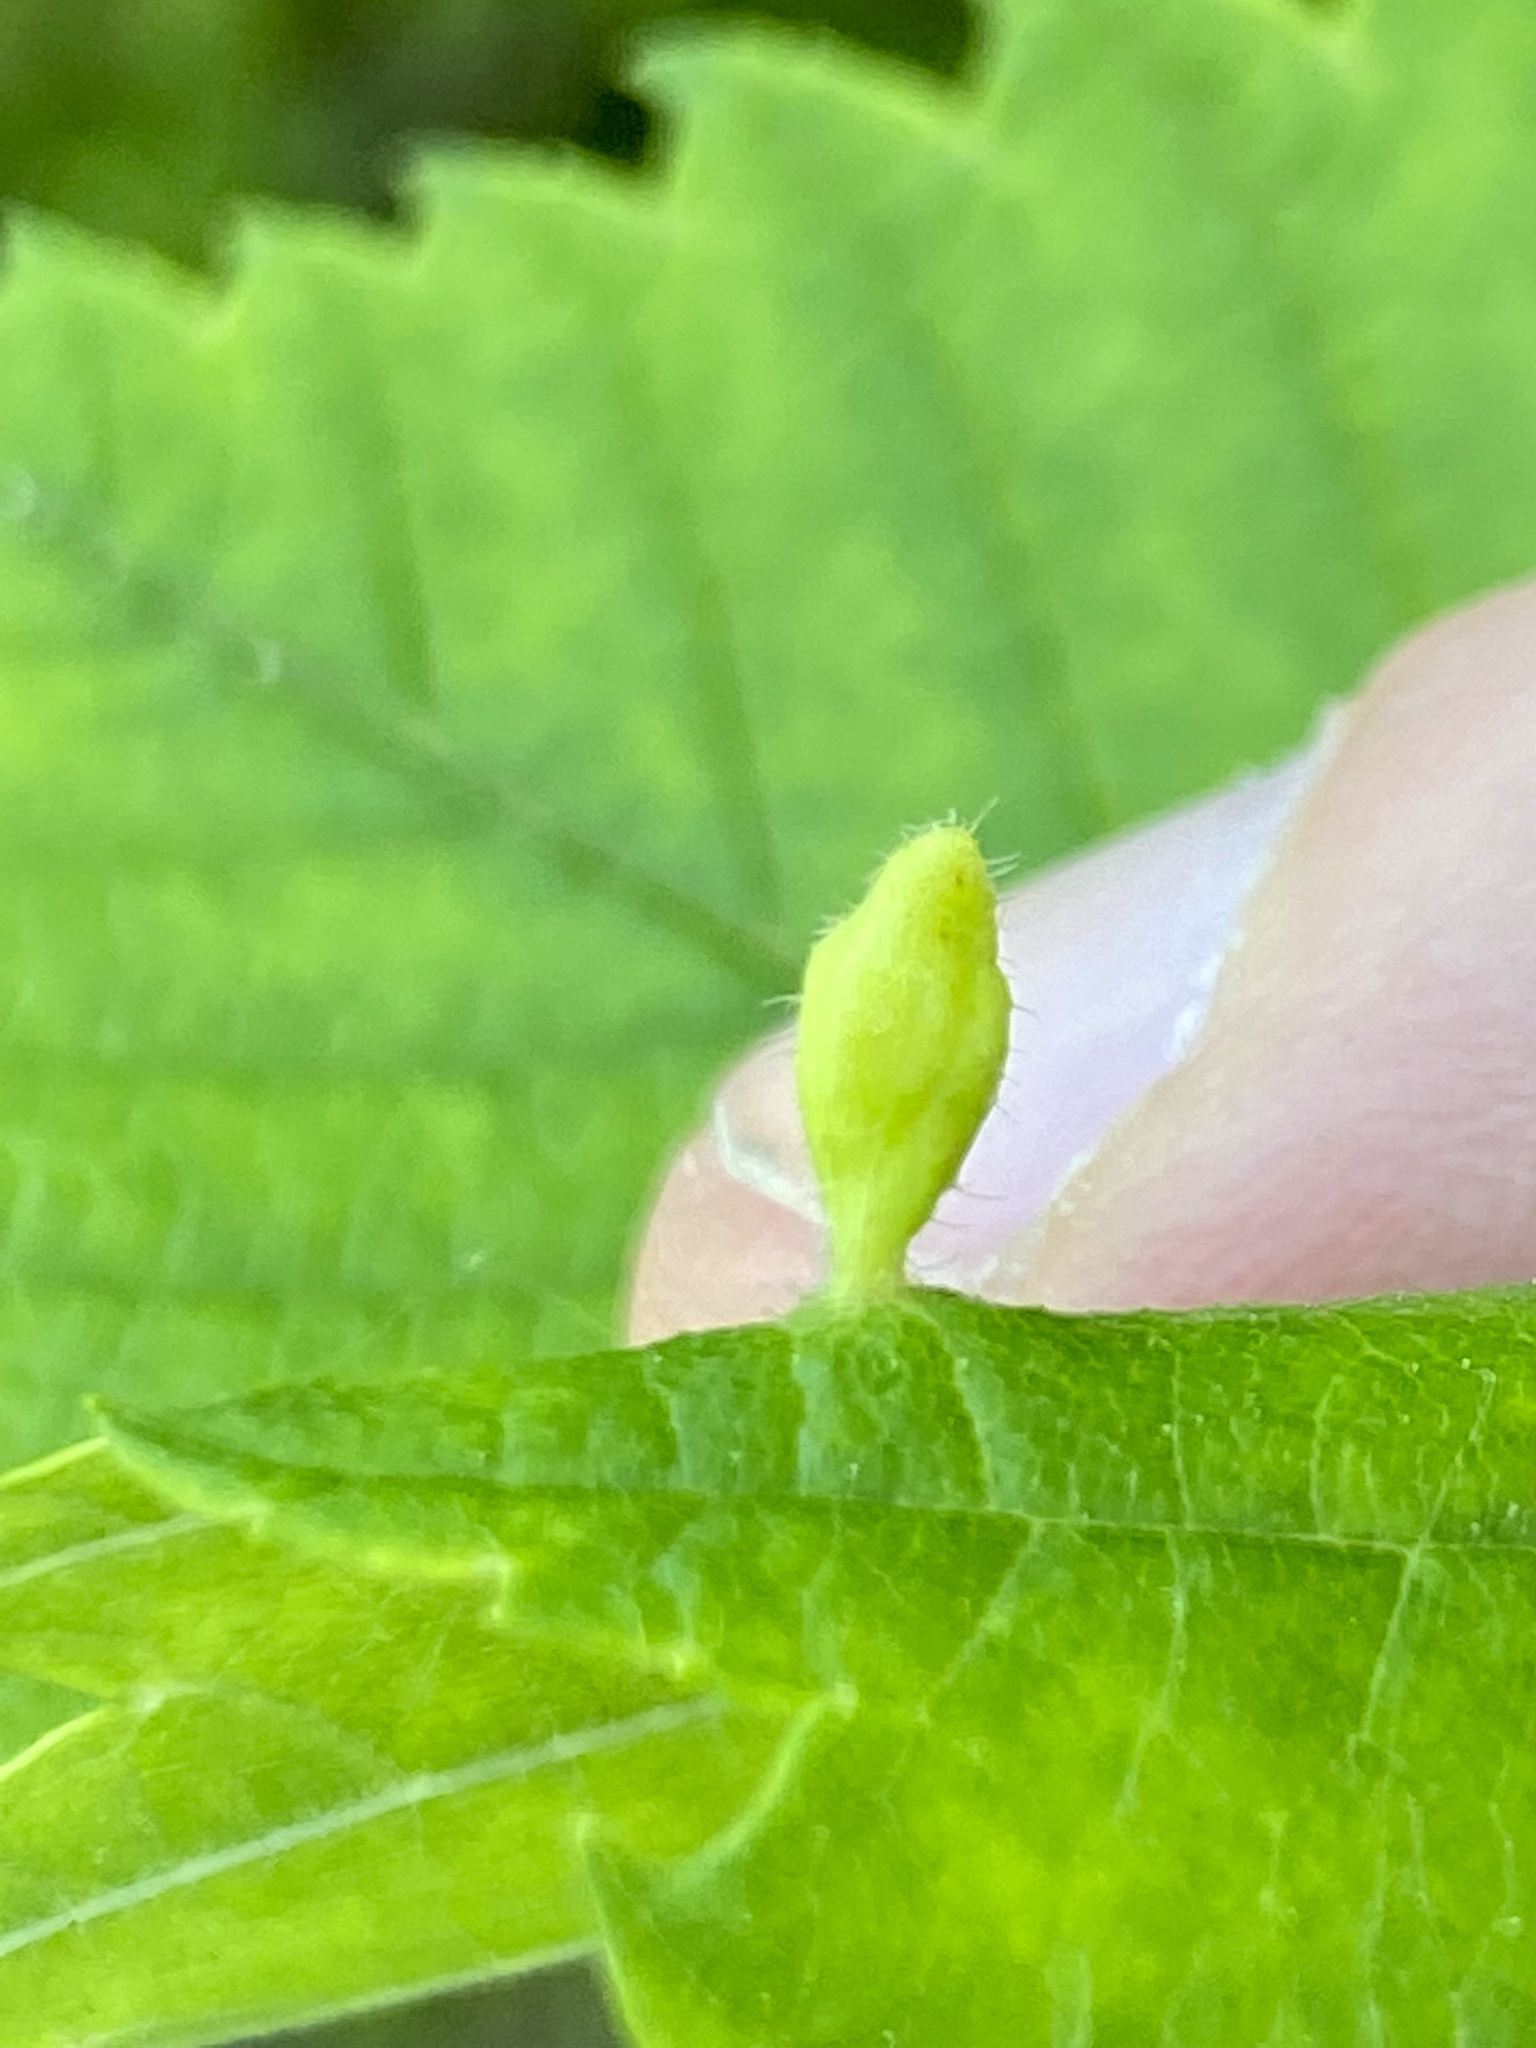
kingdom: Animalia
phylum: Arthropoda
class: Arachnida
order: Trombidiformes
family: Eriophyidae
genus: Aceria
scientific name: Aceria
